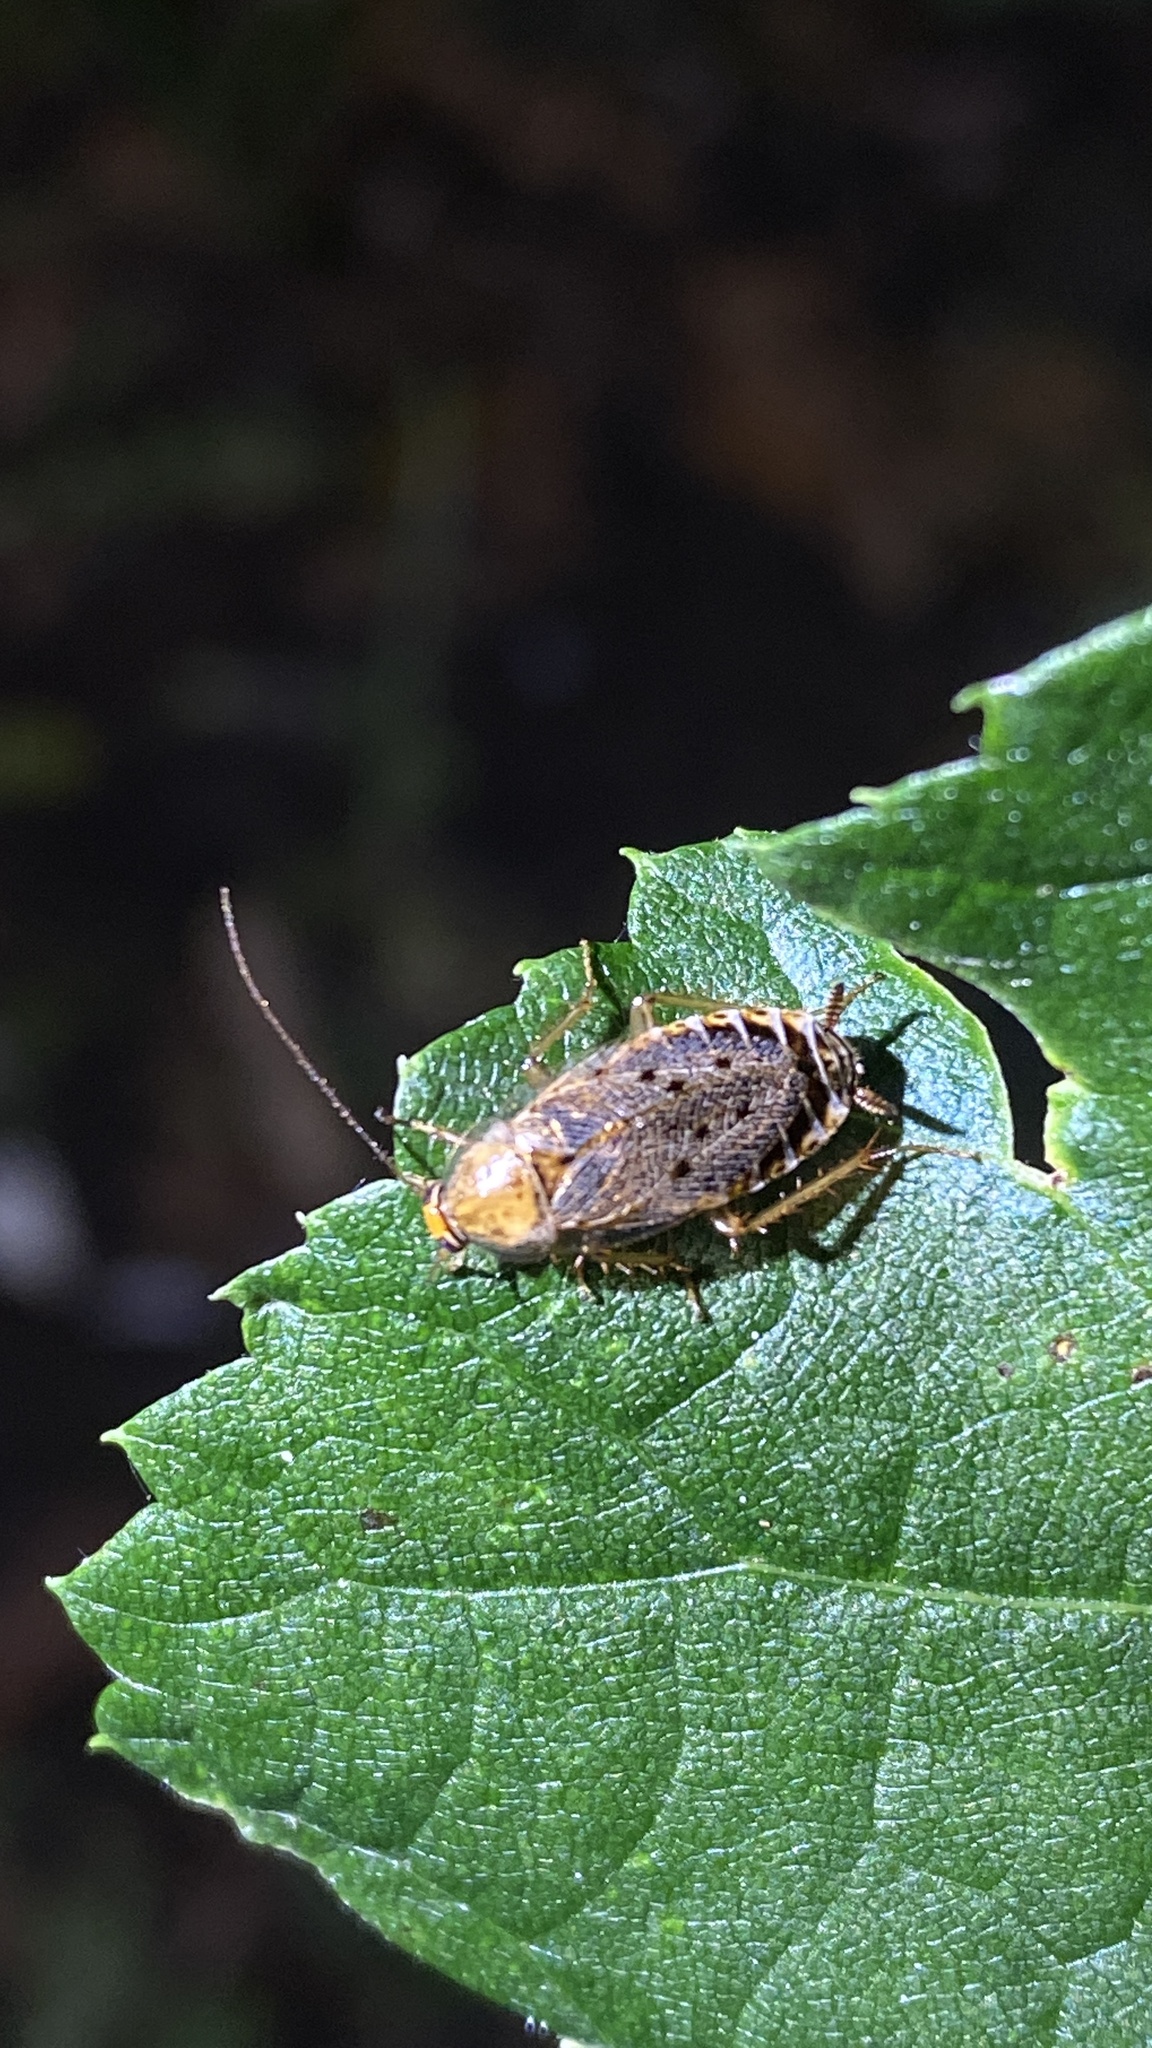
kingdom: Animalia
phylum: Arthropoda
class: Insecta
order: Blattodea
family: Ectobiidae
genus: Ectobius
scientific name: Ectobius lapponicus
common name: Dusky cockroach
